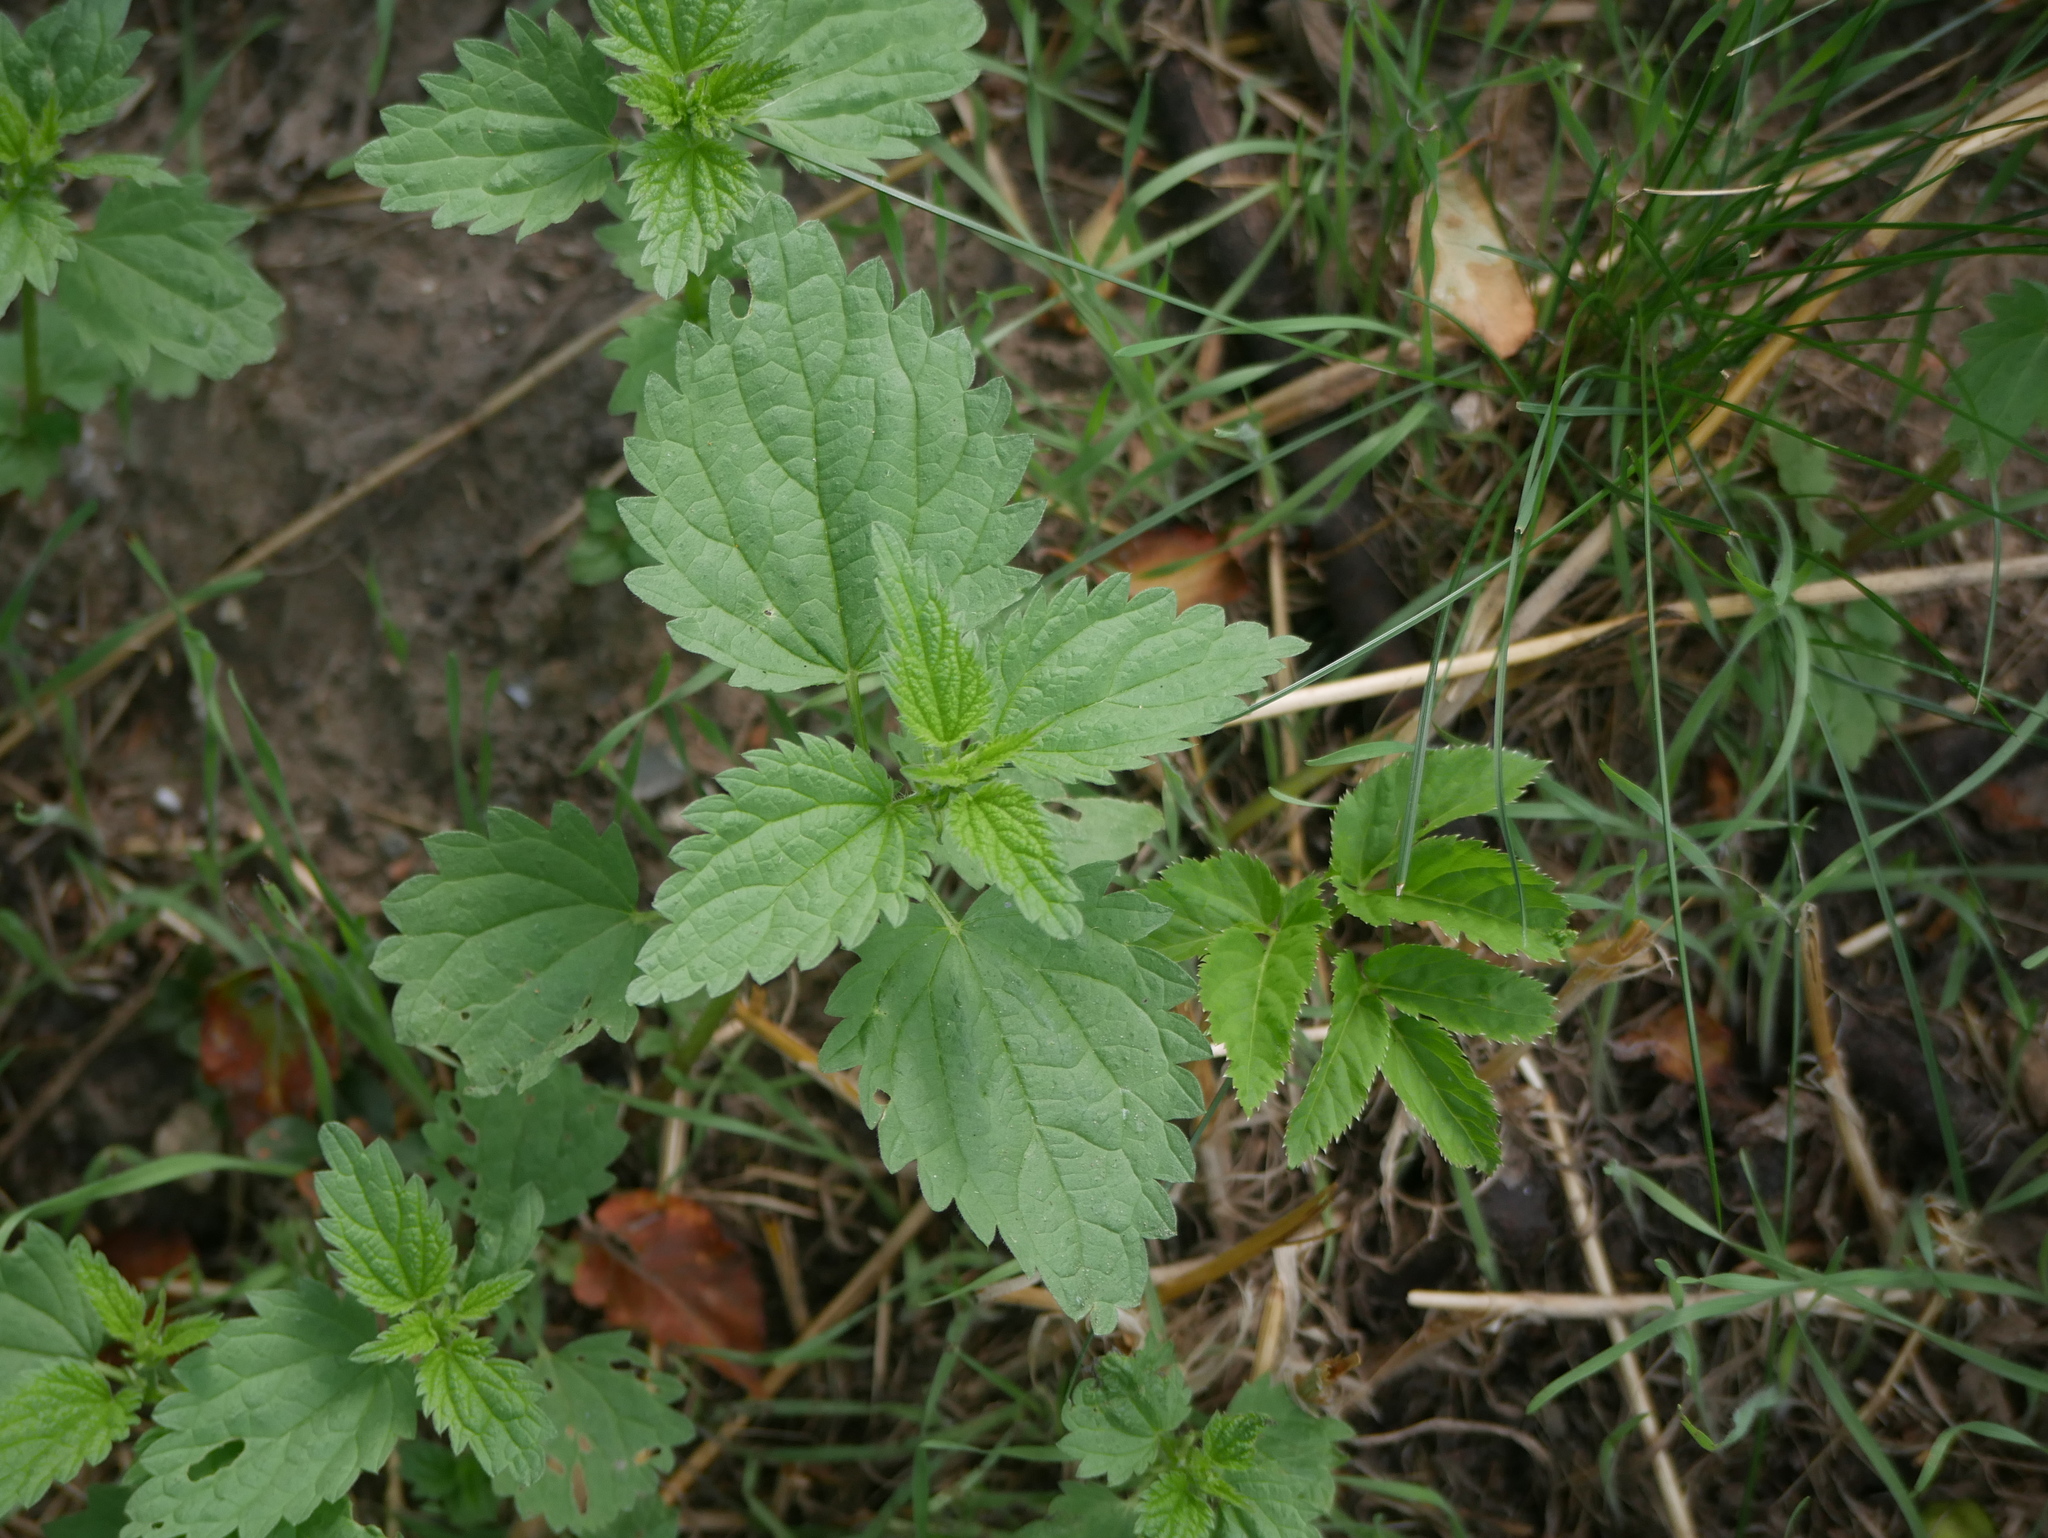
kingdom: Plantae
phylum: Tracheophyta
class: Magnoliopsida
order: Rosales
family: Urticaceae
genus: Urtica
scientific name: Urtica dioica
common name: Common nettle
